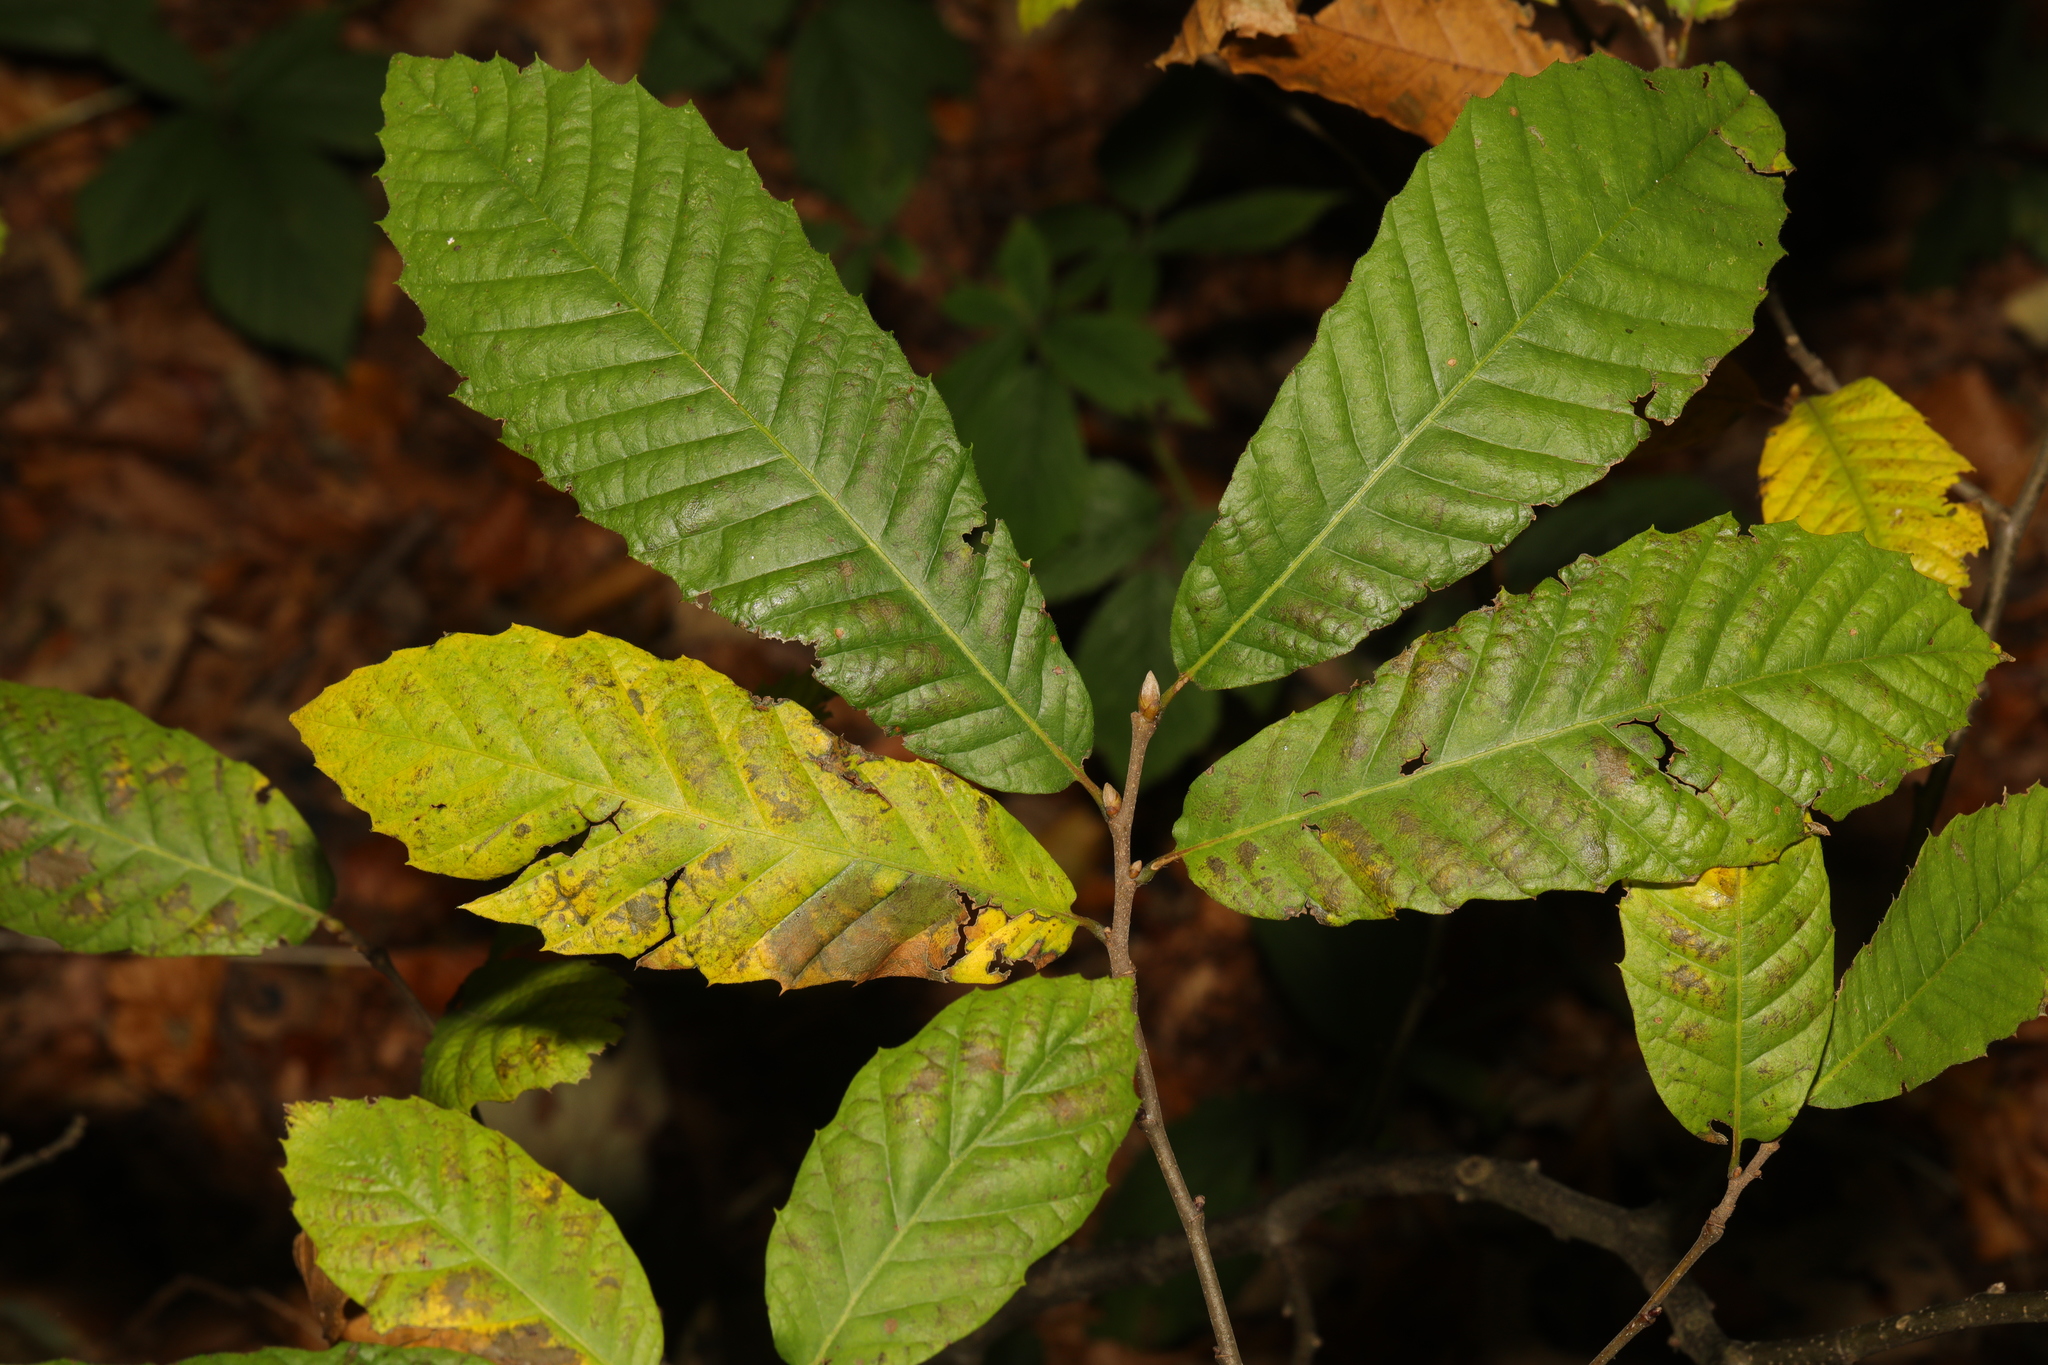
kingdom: Plantae
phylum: Tracheophyta
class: Magnoliopsida
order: Fagales
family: Fagaceae
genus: Castanea
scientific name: Castanea sativa
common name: Sweet chestnut
